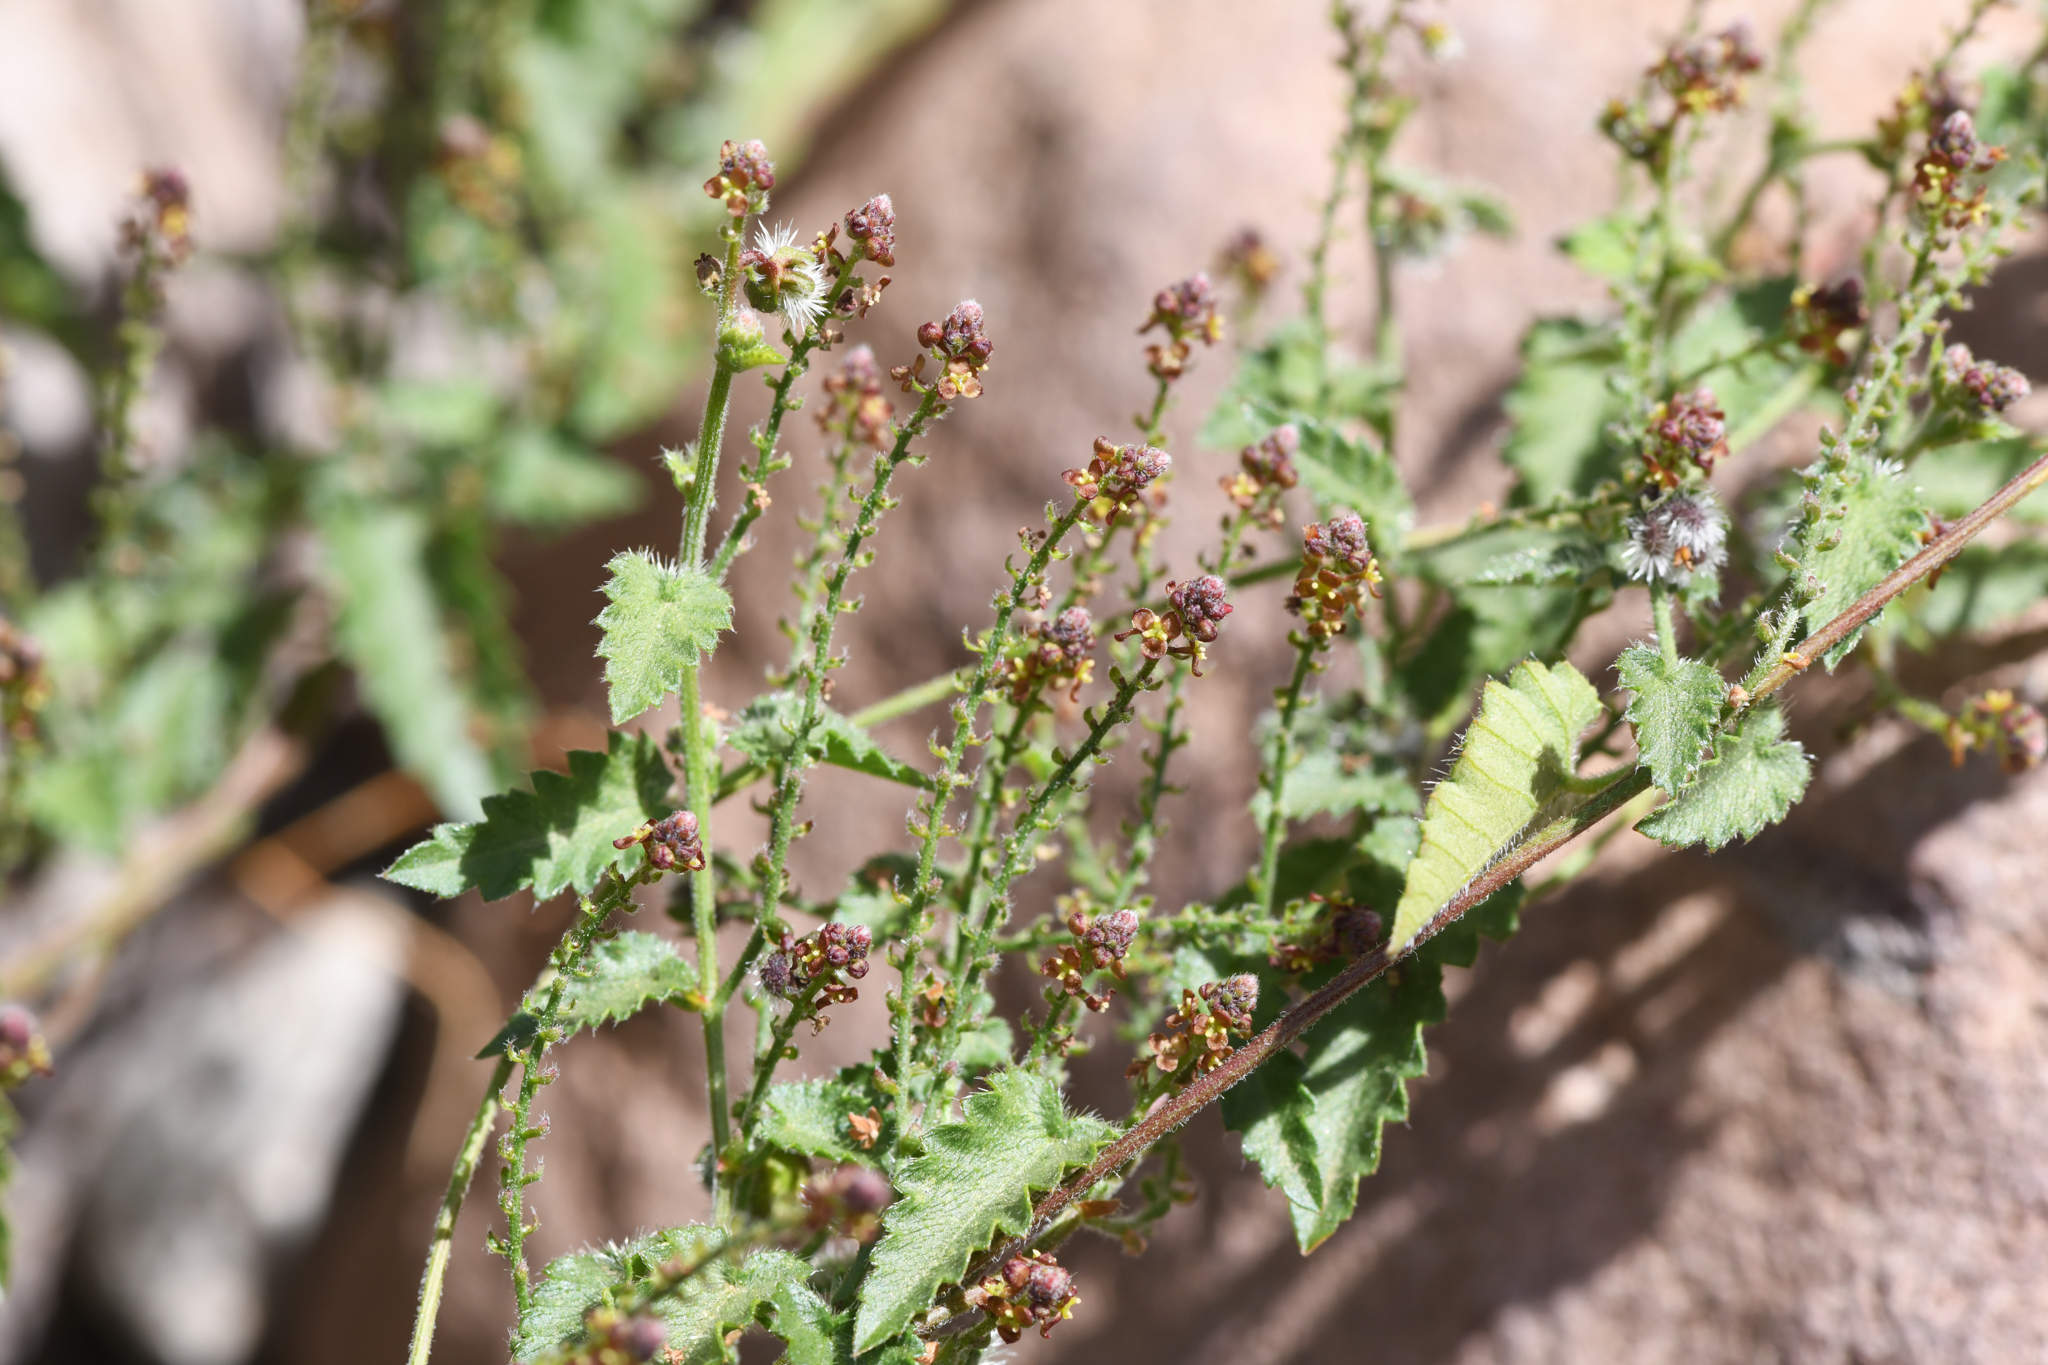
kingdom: Plantae
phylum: Tracheophyta
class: Magnoliopsida
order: Malpighiales
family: Euphorbiaceae
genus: Tragia
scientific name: Tragia
